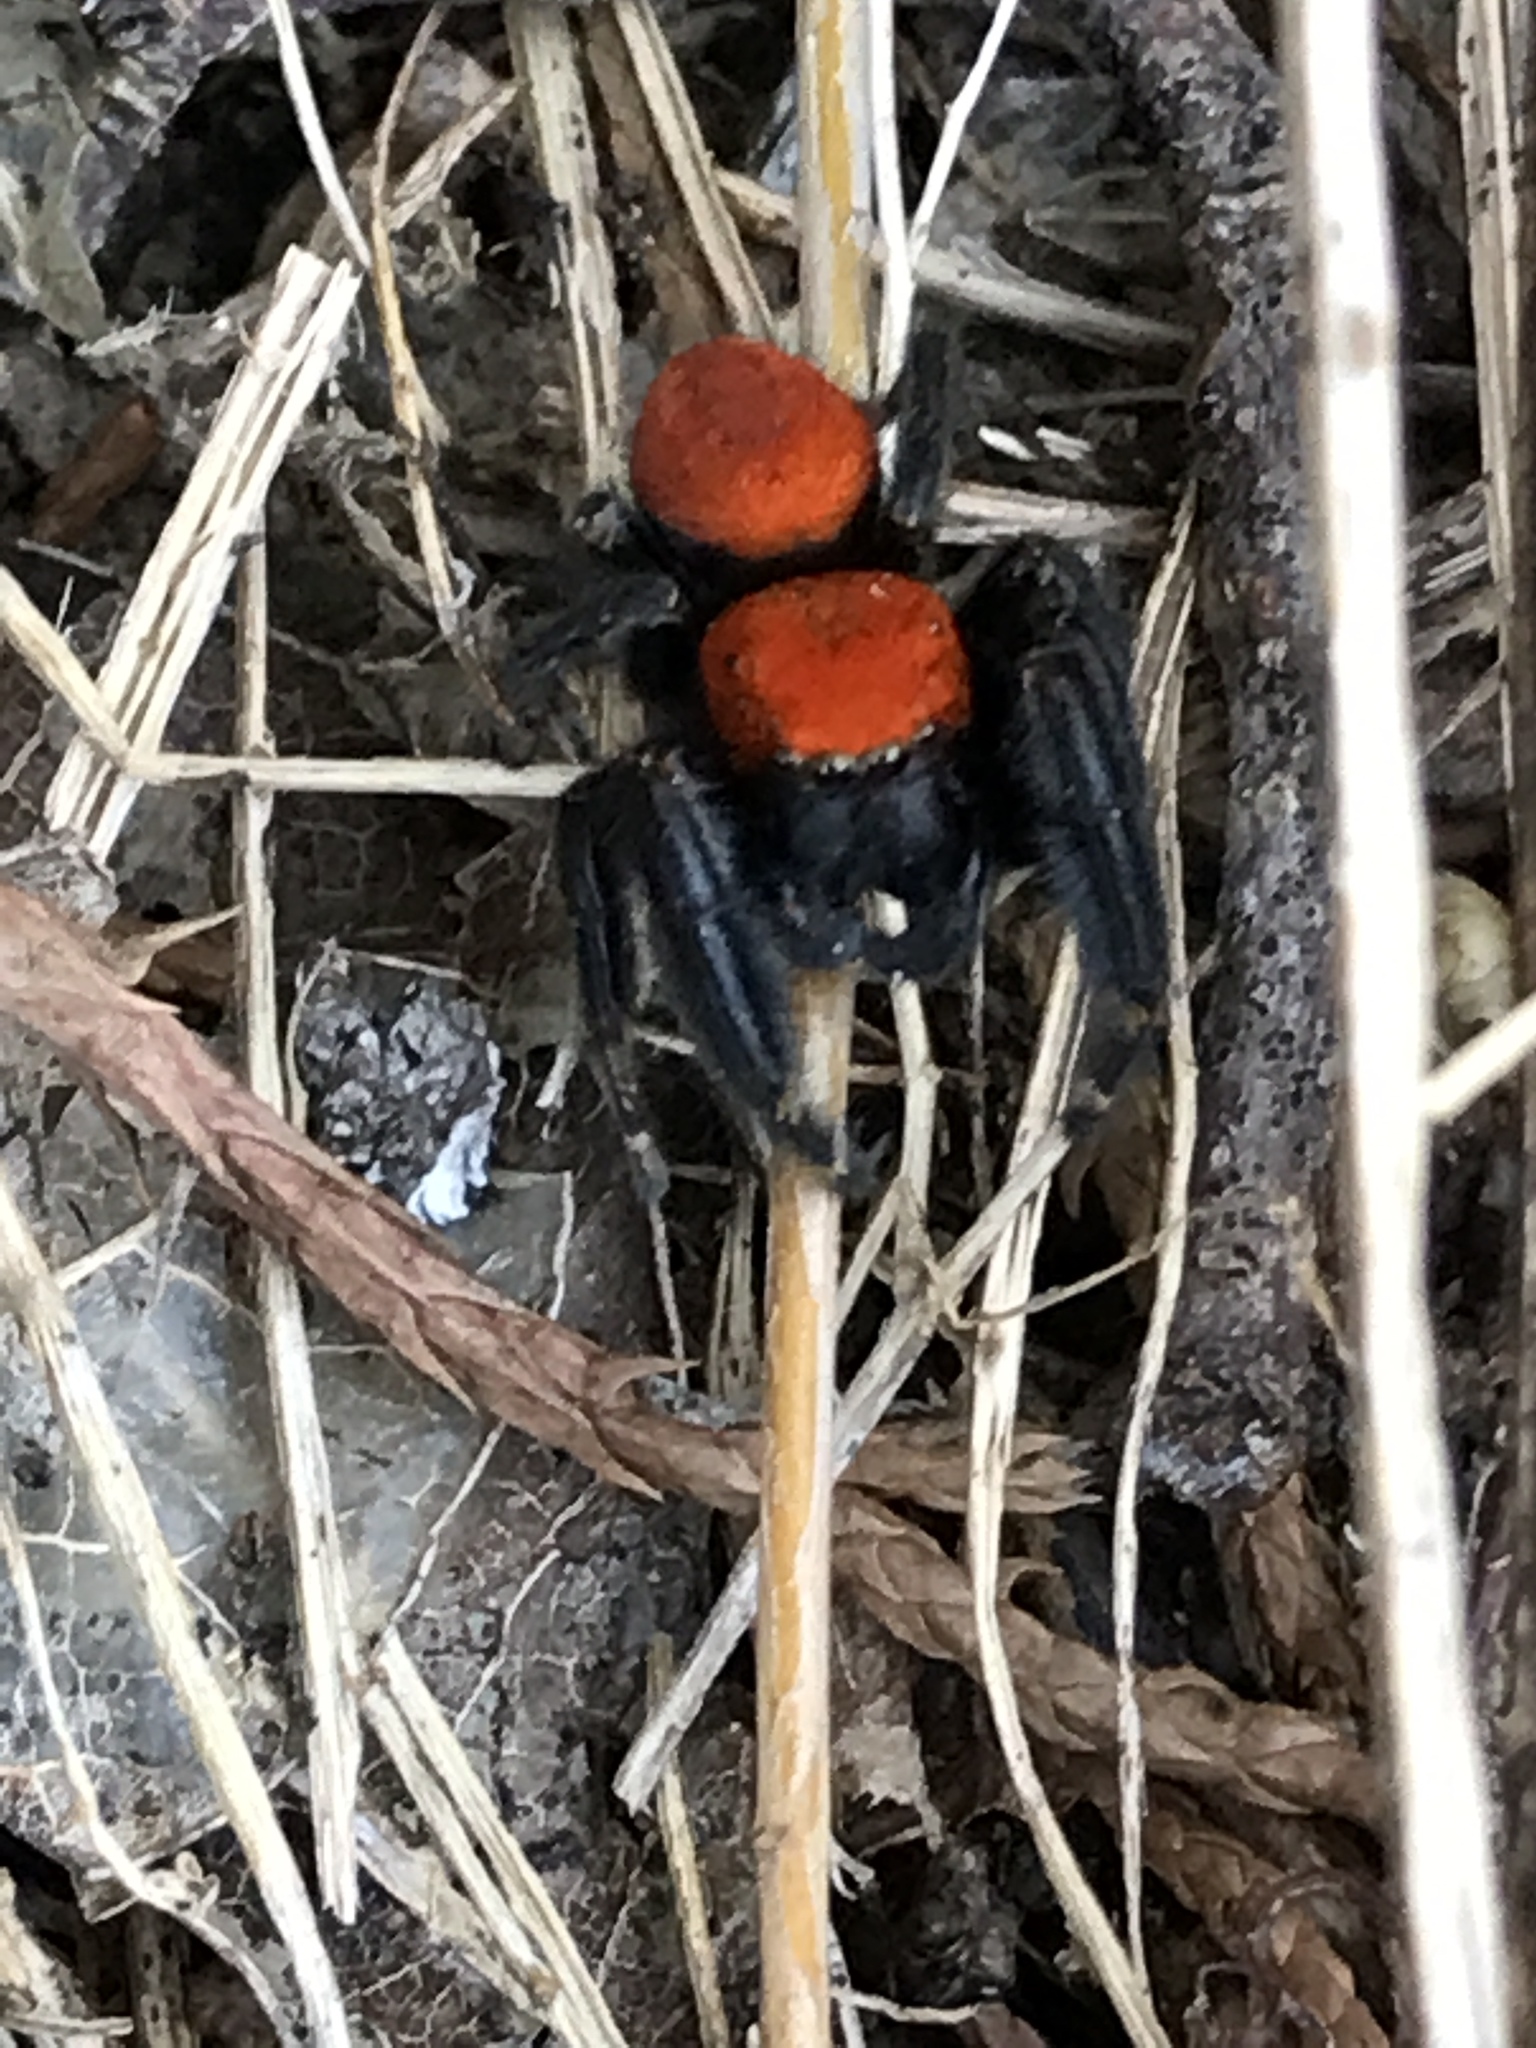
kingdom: Animalia
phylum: Arthropoda
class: Arachnida
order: Araneae
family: Salticidae
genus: Phidippus
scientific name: Phidippus cardinalis
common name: Cardinal jumper
